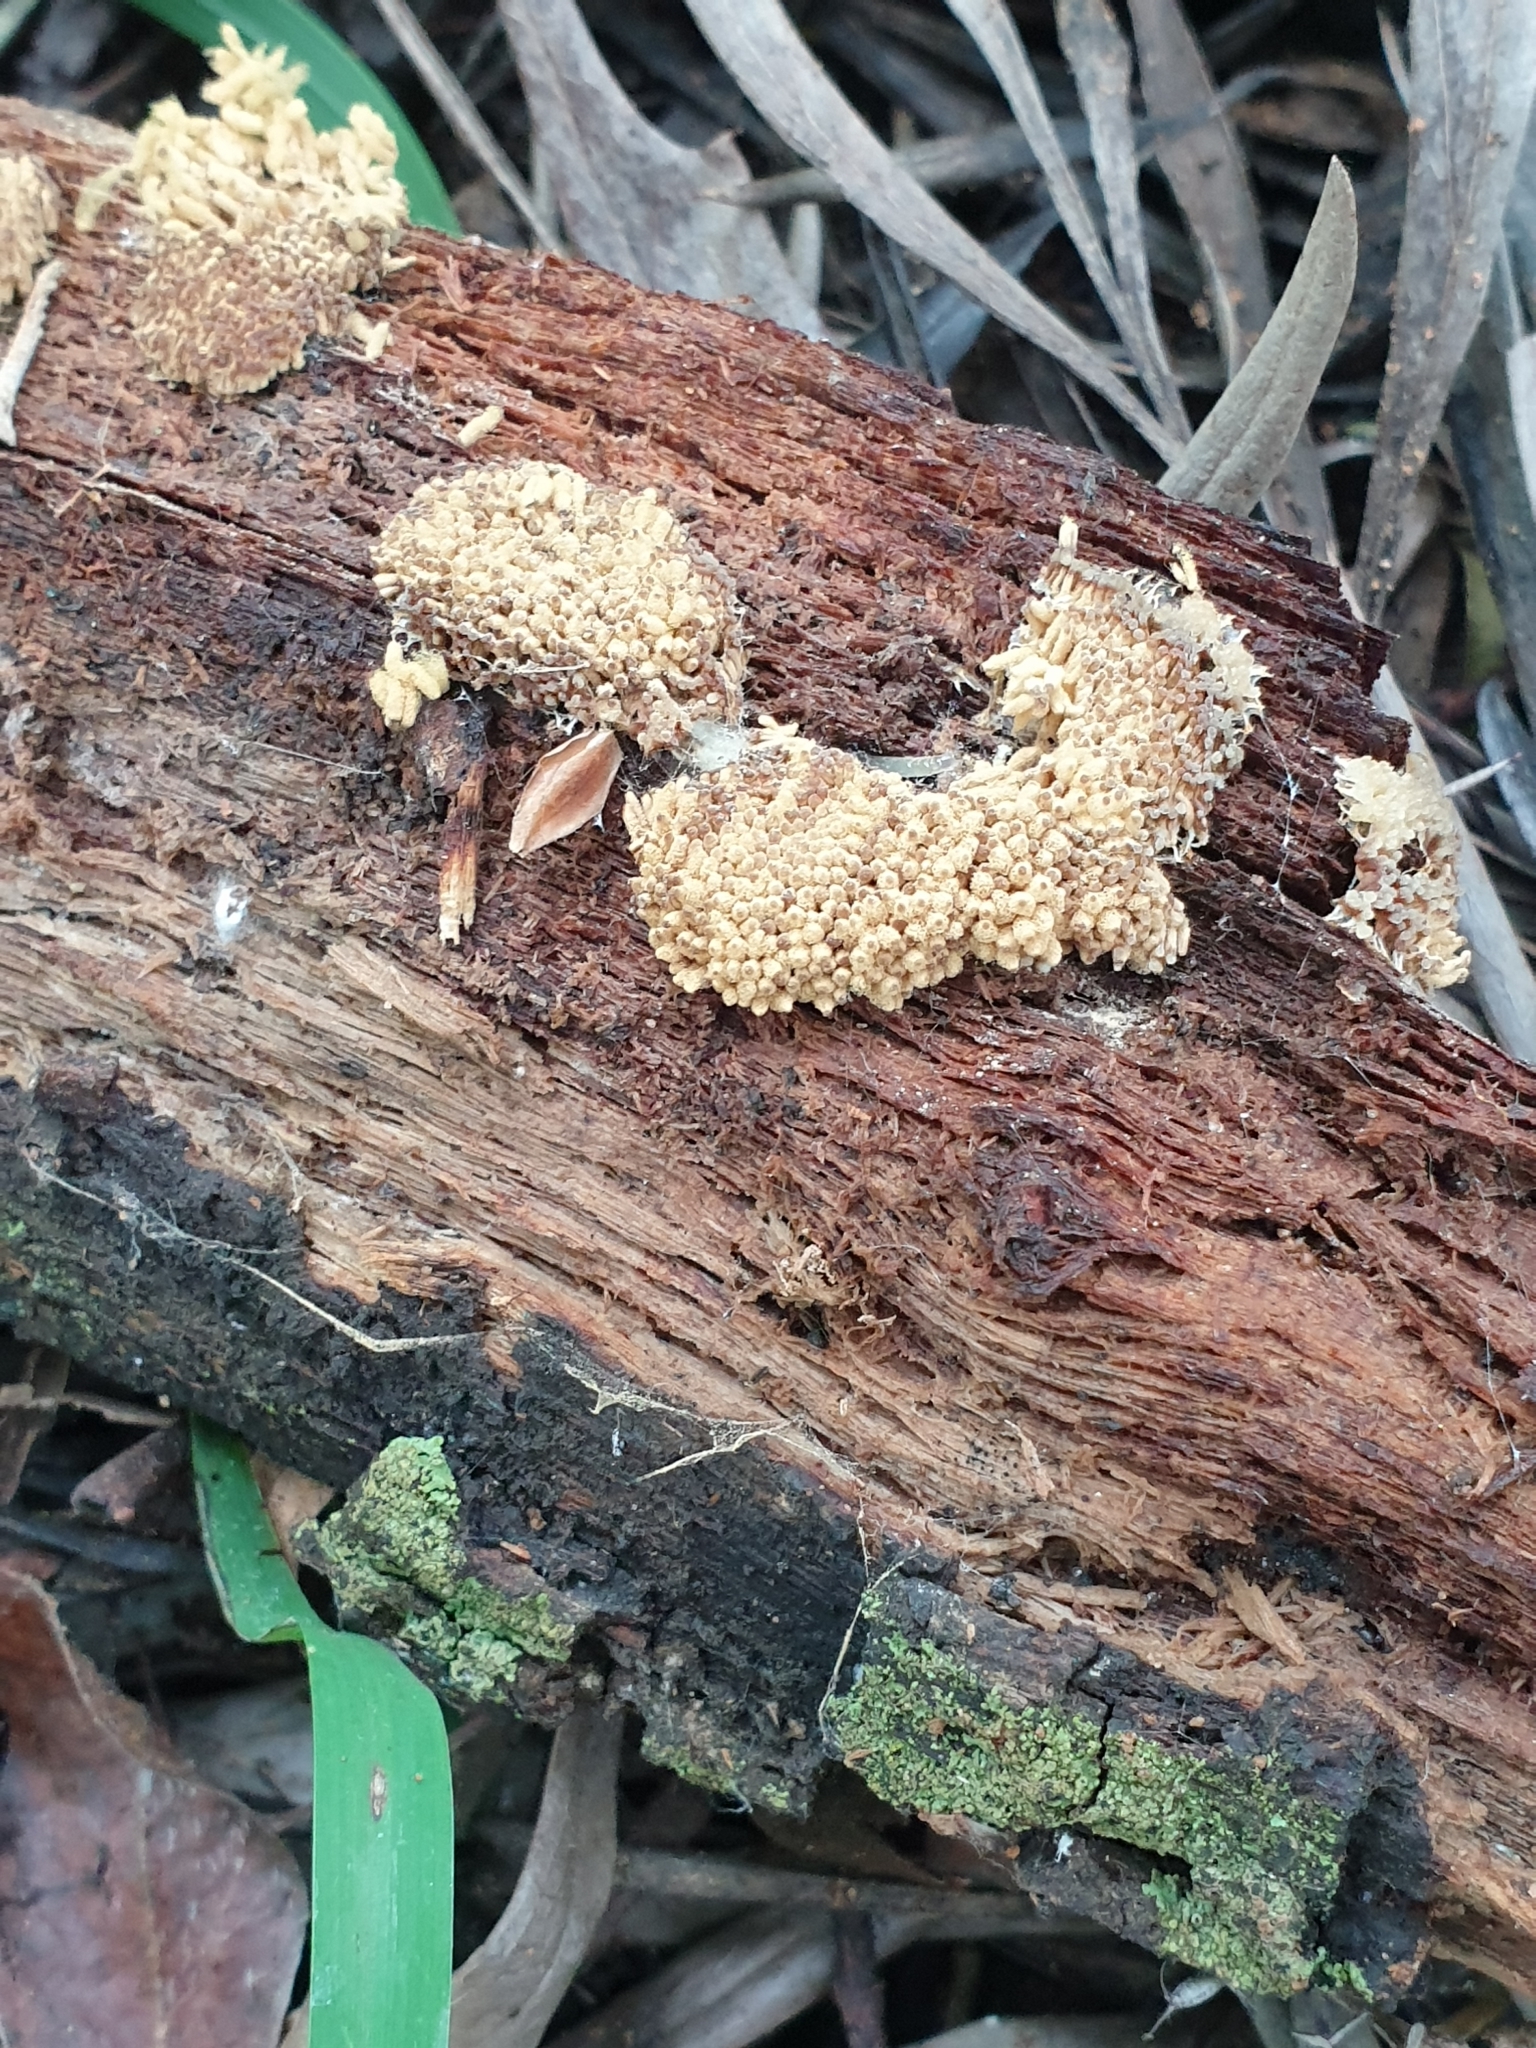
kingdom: Protozoa
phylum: Mycetozoa
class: Myxomycetes
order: Trichiales
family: Arcyriaceae
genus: Arcyria
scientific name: Arcyria obvelata
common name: Yellow carnival candy slime
